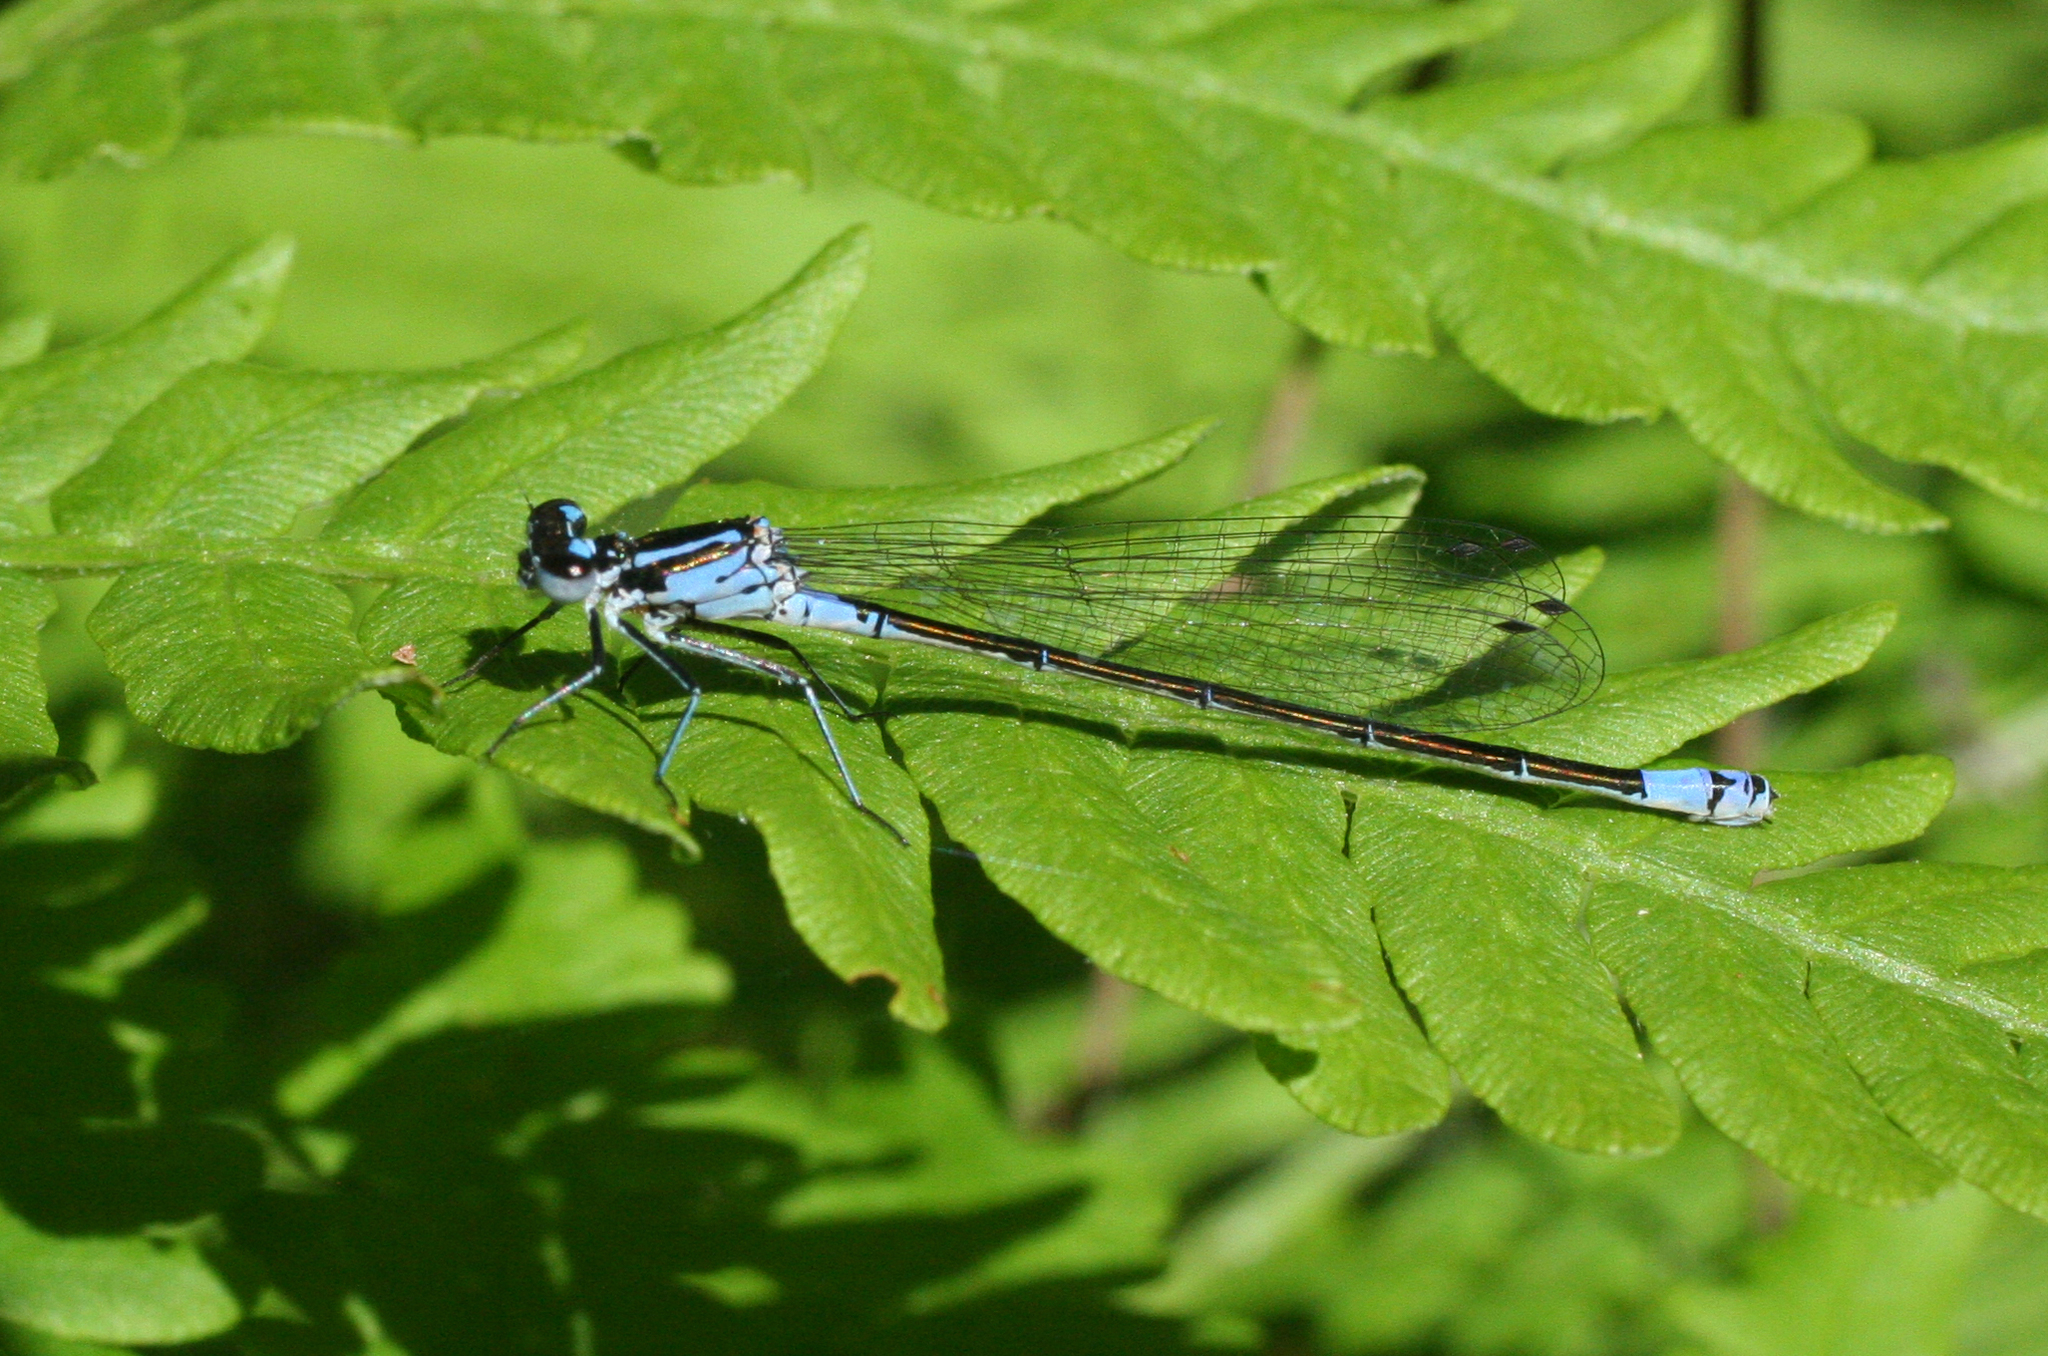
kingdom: Animalia
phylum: Arthropoda
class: Insecta
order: Odonata
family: Coenagrionidae
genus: Coenagrion
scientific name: Coenagrion pulchellum
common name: Variable bluet
